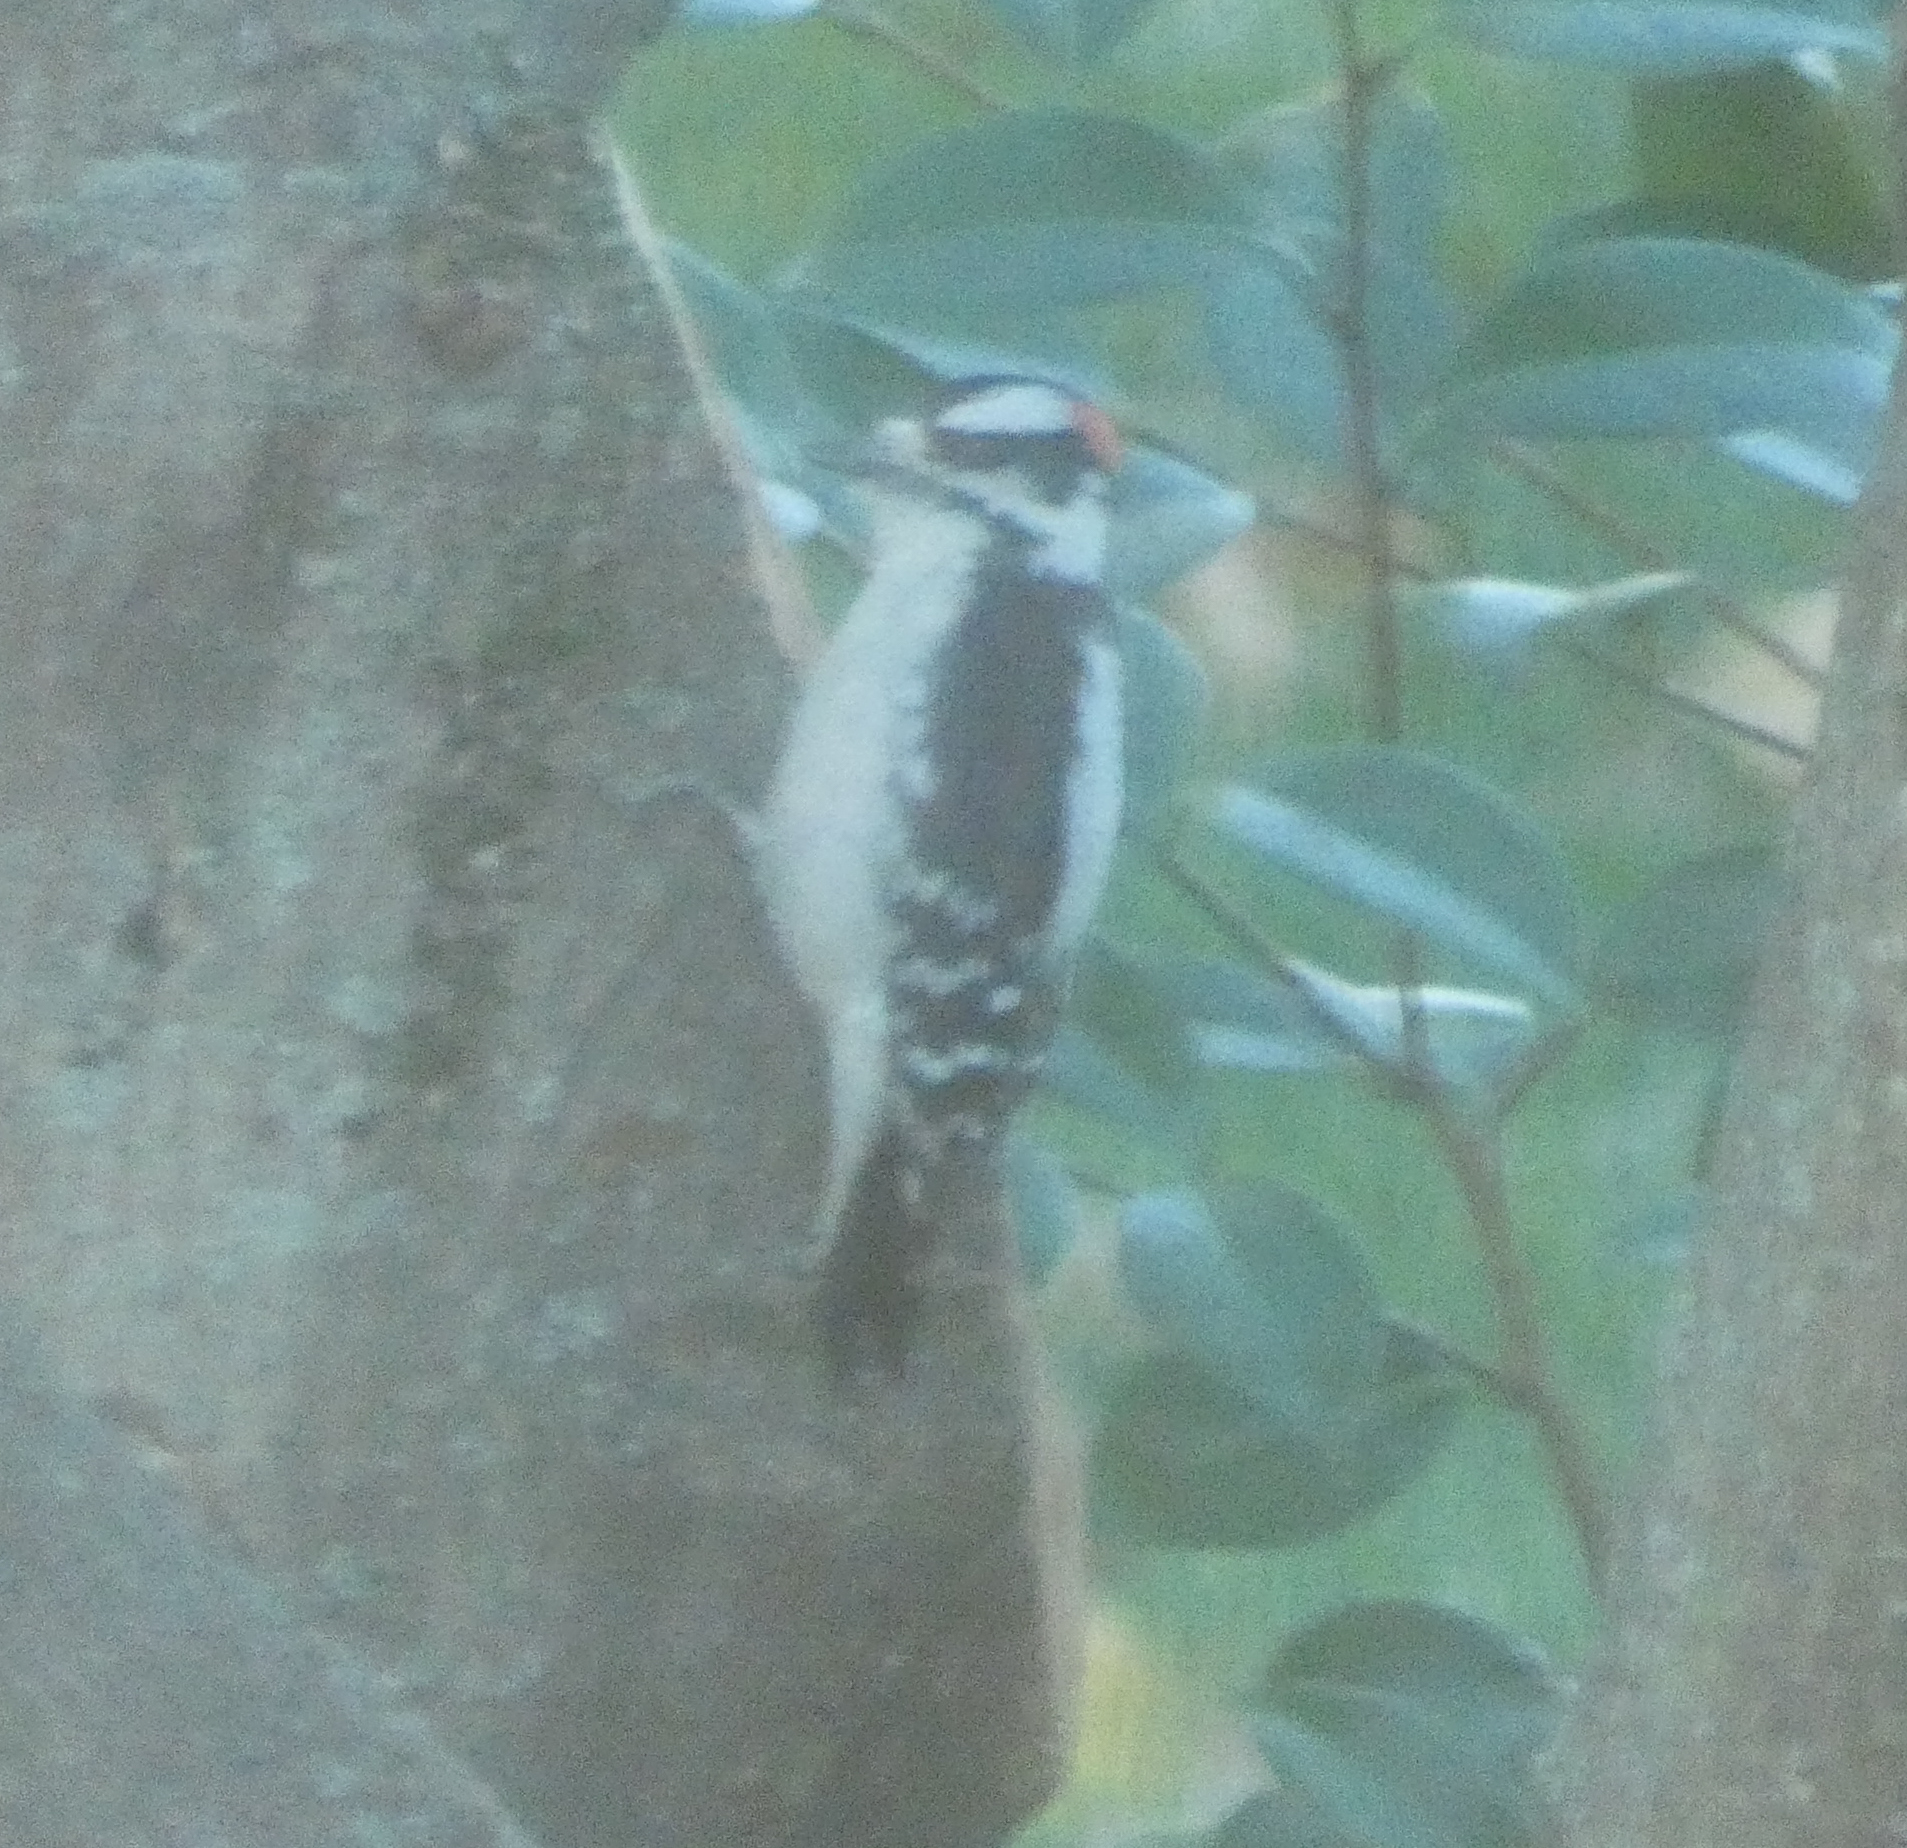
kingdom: Animalia
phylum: Chordata
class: Aves
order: Piciformes
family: Picidae
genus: Dryobates
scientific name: Dryobates pubescens
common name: Downy woodpecker
